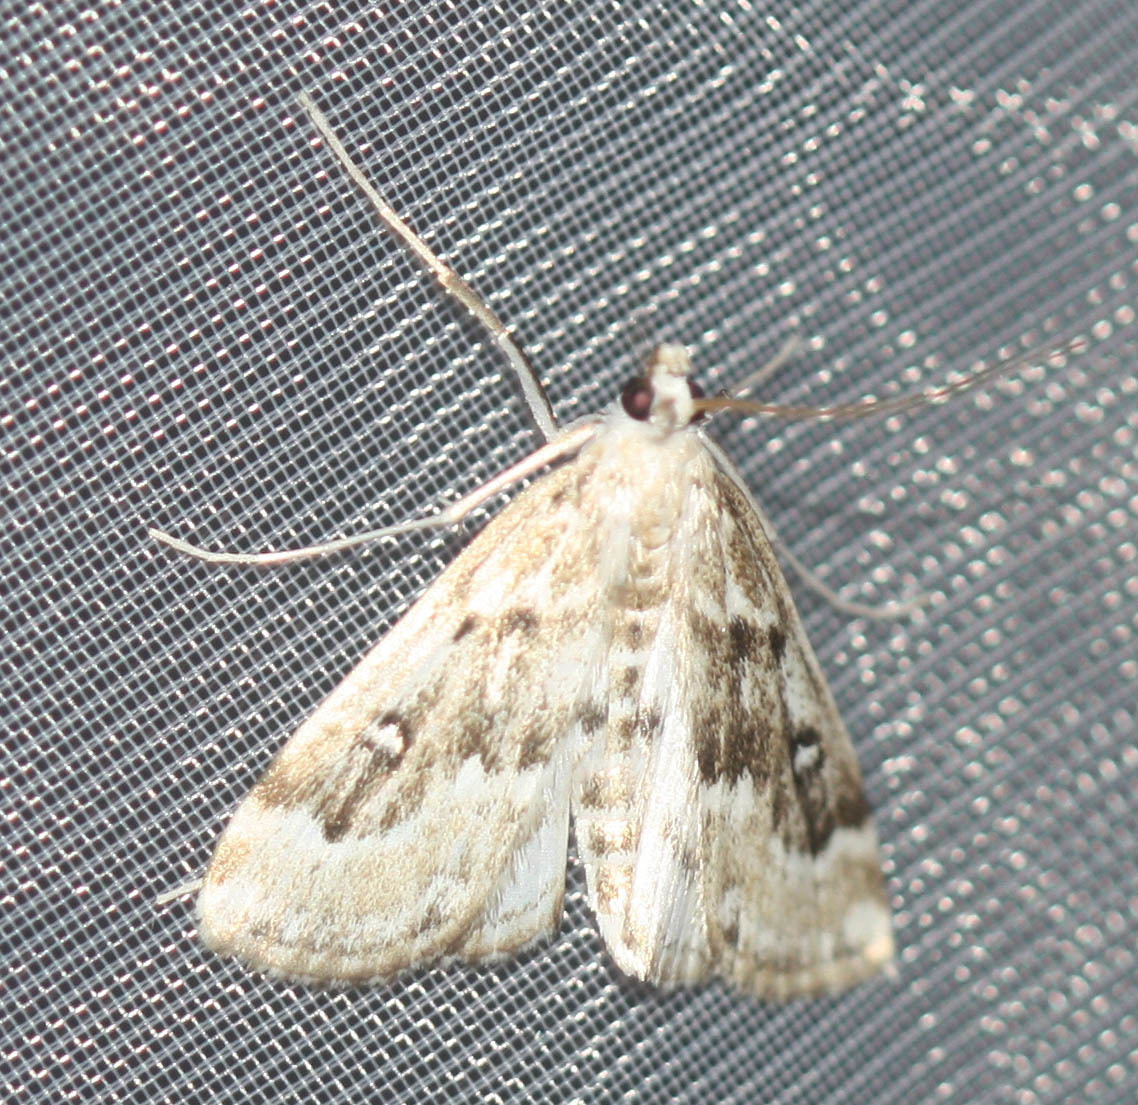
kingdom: Animalia
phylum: Arthropoda
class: Insecta
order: Lepidoptera
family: Crambidae
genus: Parapoynx
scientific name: Parapoynx stratiotata
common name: Ringed china-mark
